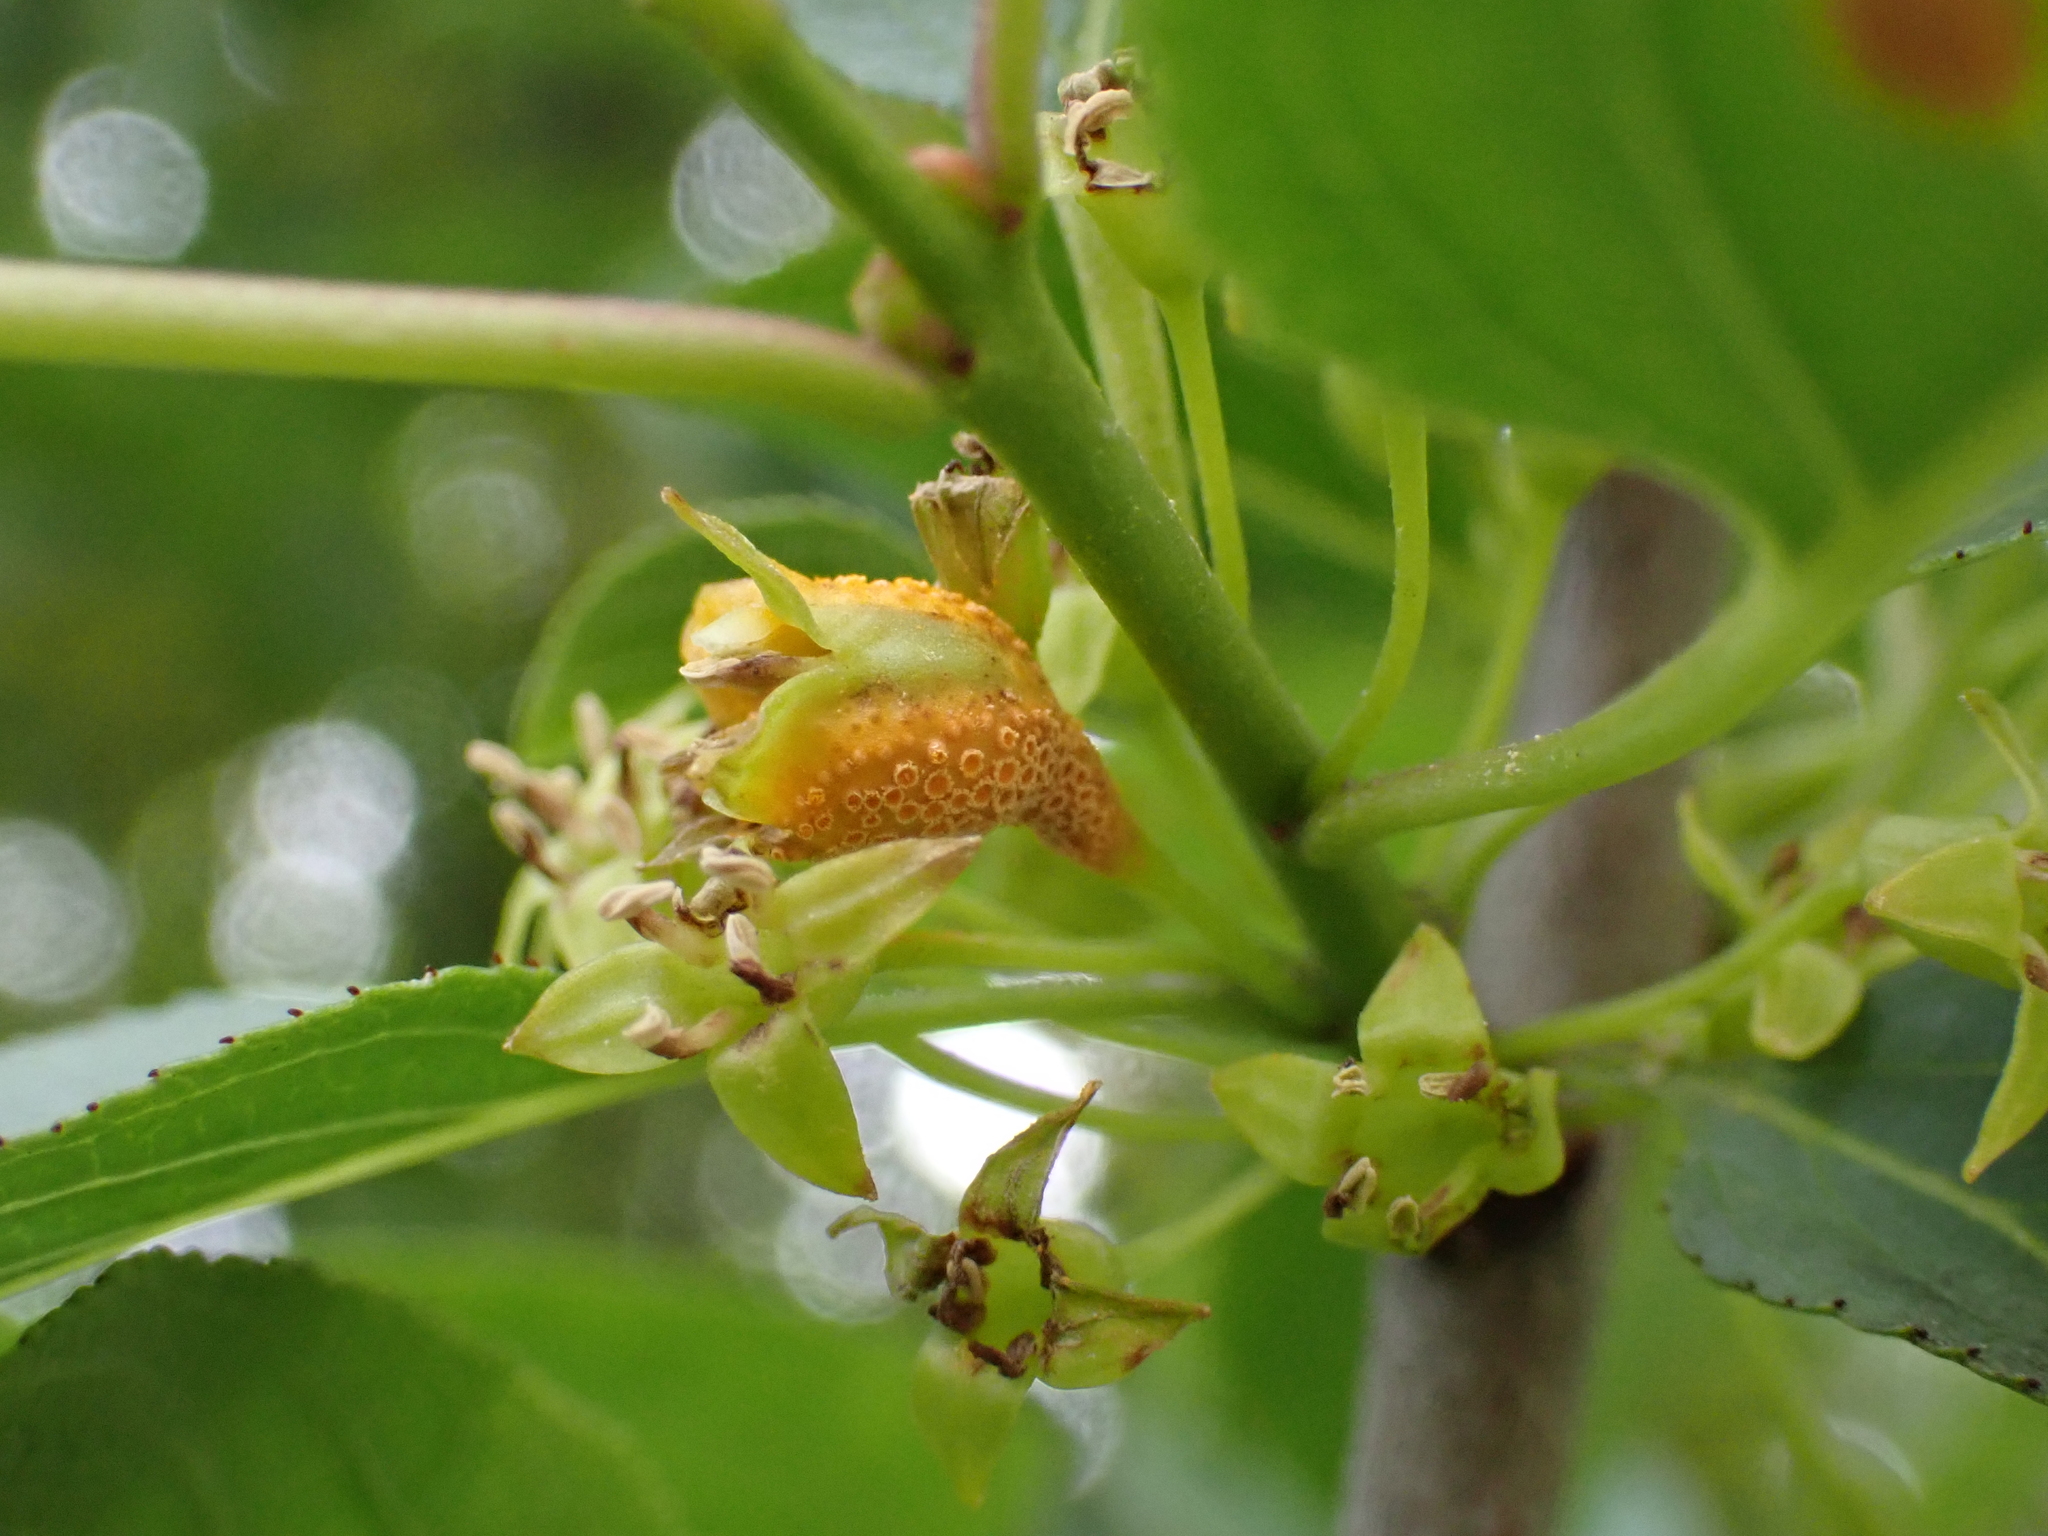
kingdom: Fungi
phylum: Basidiomycota
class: Pucciniomycetes
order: Pucciniales
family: Pucciniaceae
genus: Puccinia
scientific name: Puccinia coronata
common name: Crown rust
